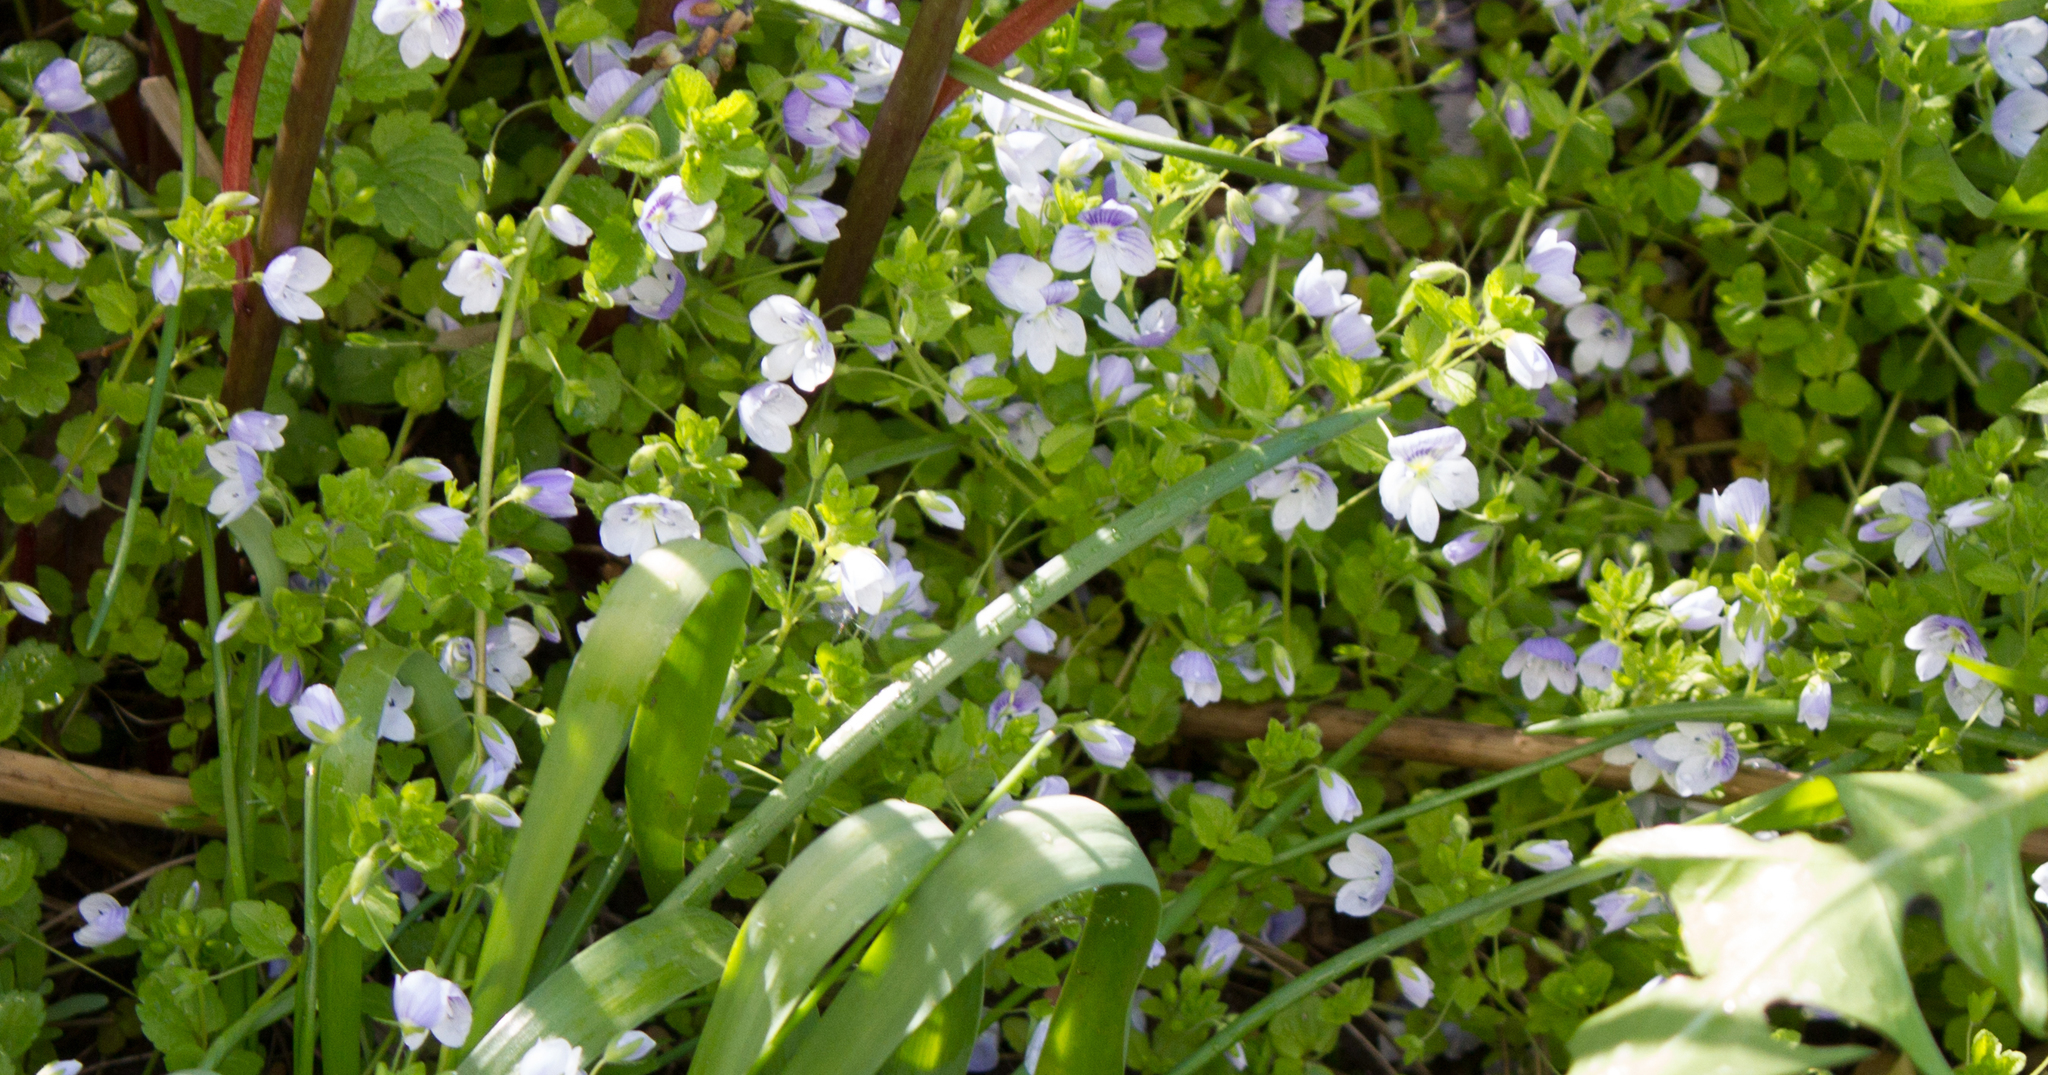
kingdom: Plantae
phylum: Tracheophyta
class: Magnoliopsida
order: Lamiales
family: Plantaginaceae
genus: Veronica
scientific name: Veronica filiformis
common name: Slender speedwell
